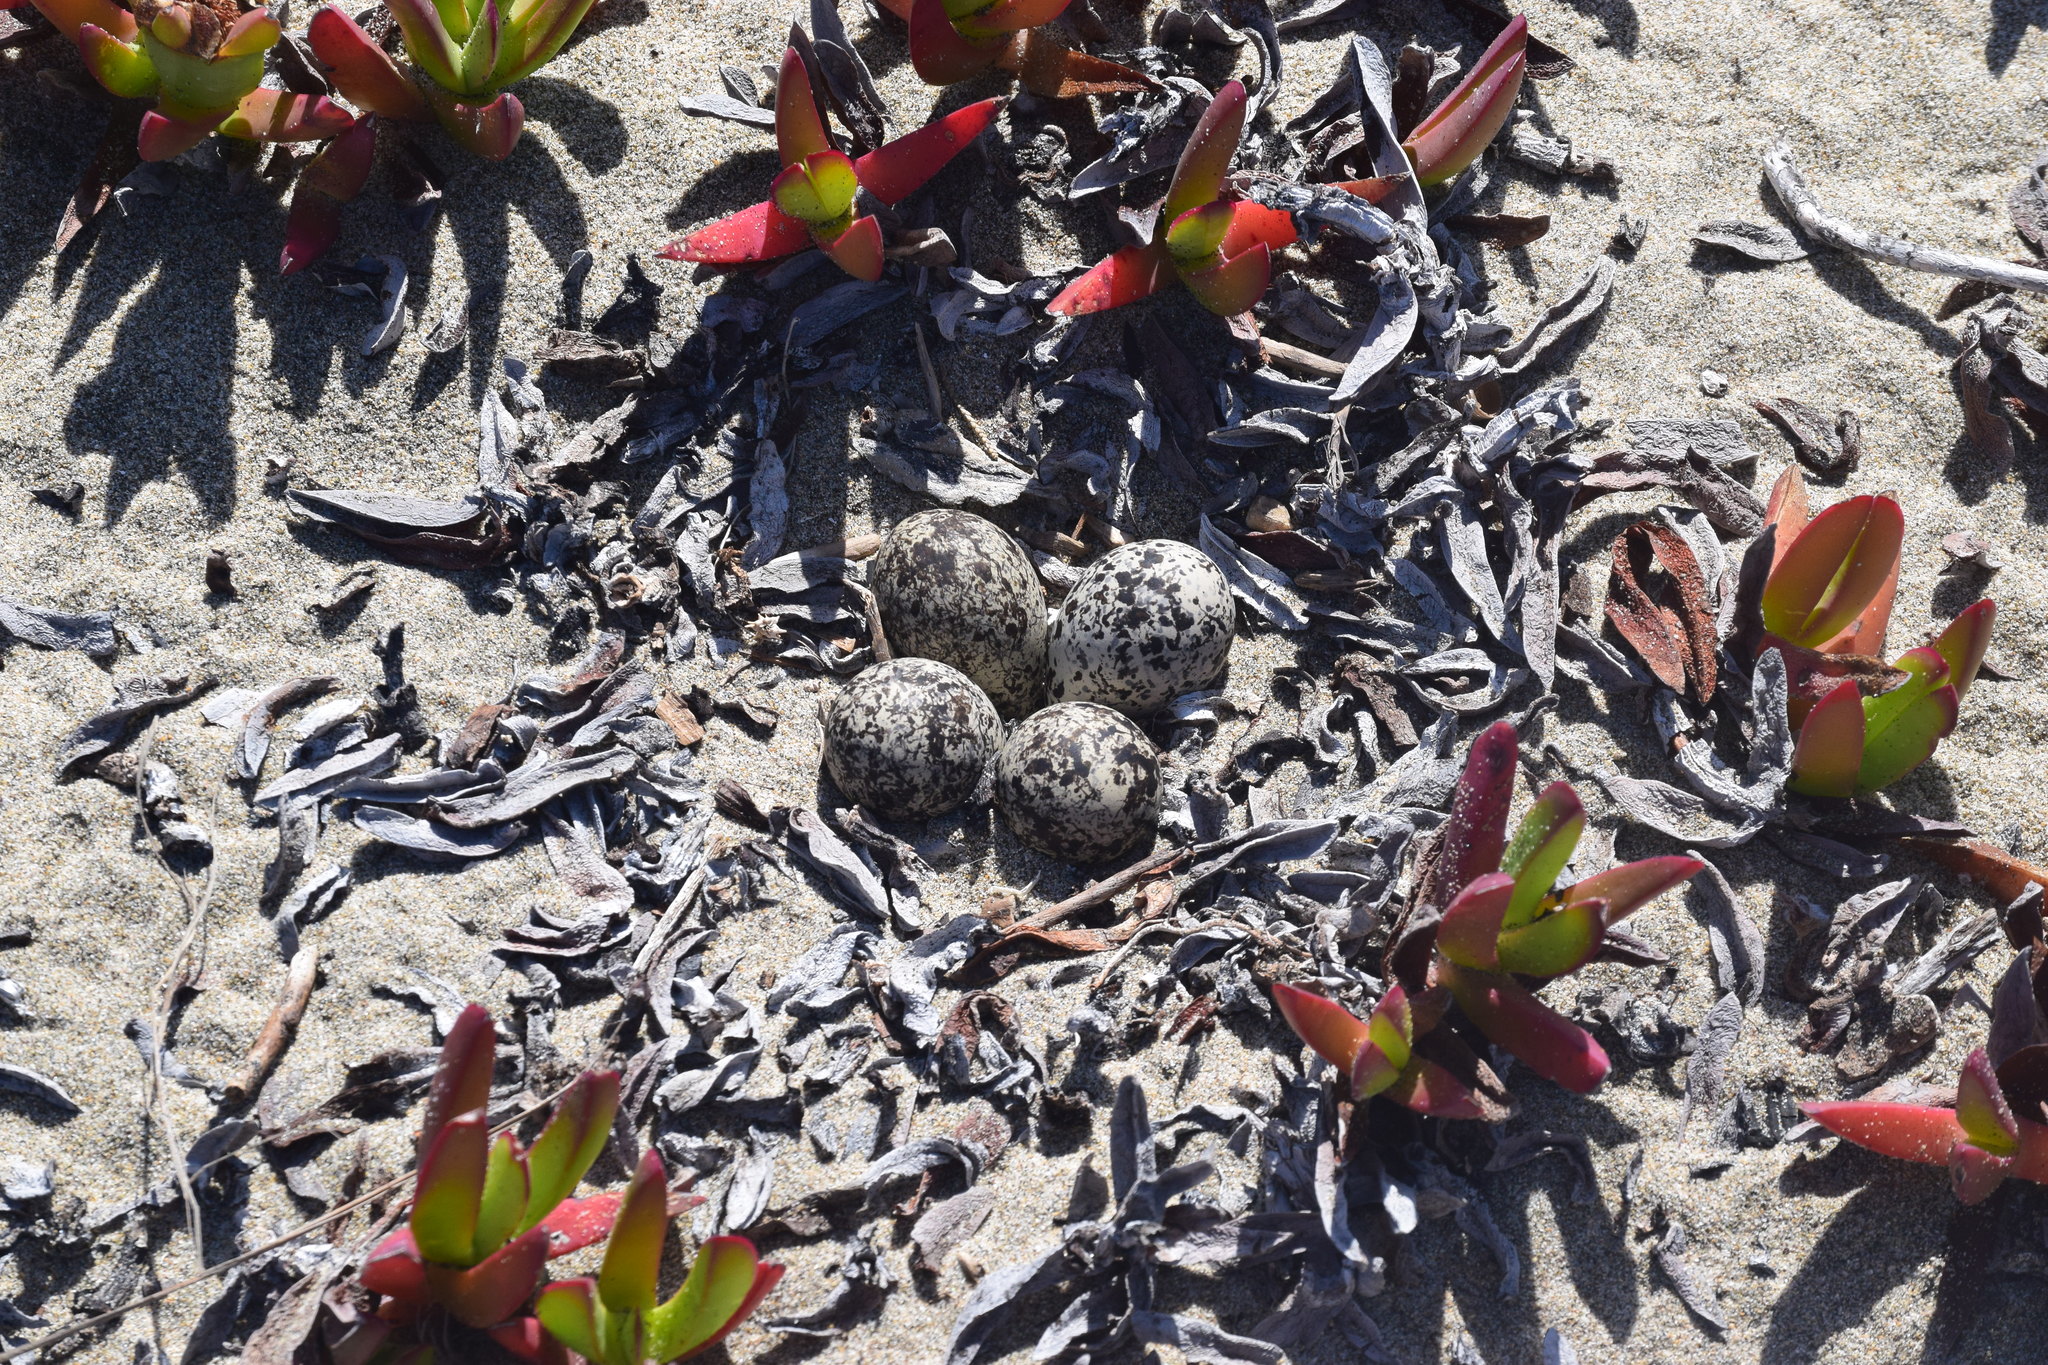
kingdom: Animalia
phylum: Chordata
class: Aves
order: Charadriiformes
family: Charadriidae
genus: Charadrius
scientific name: Charadrius vociferus
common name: Killdeer
